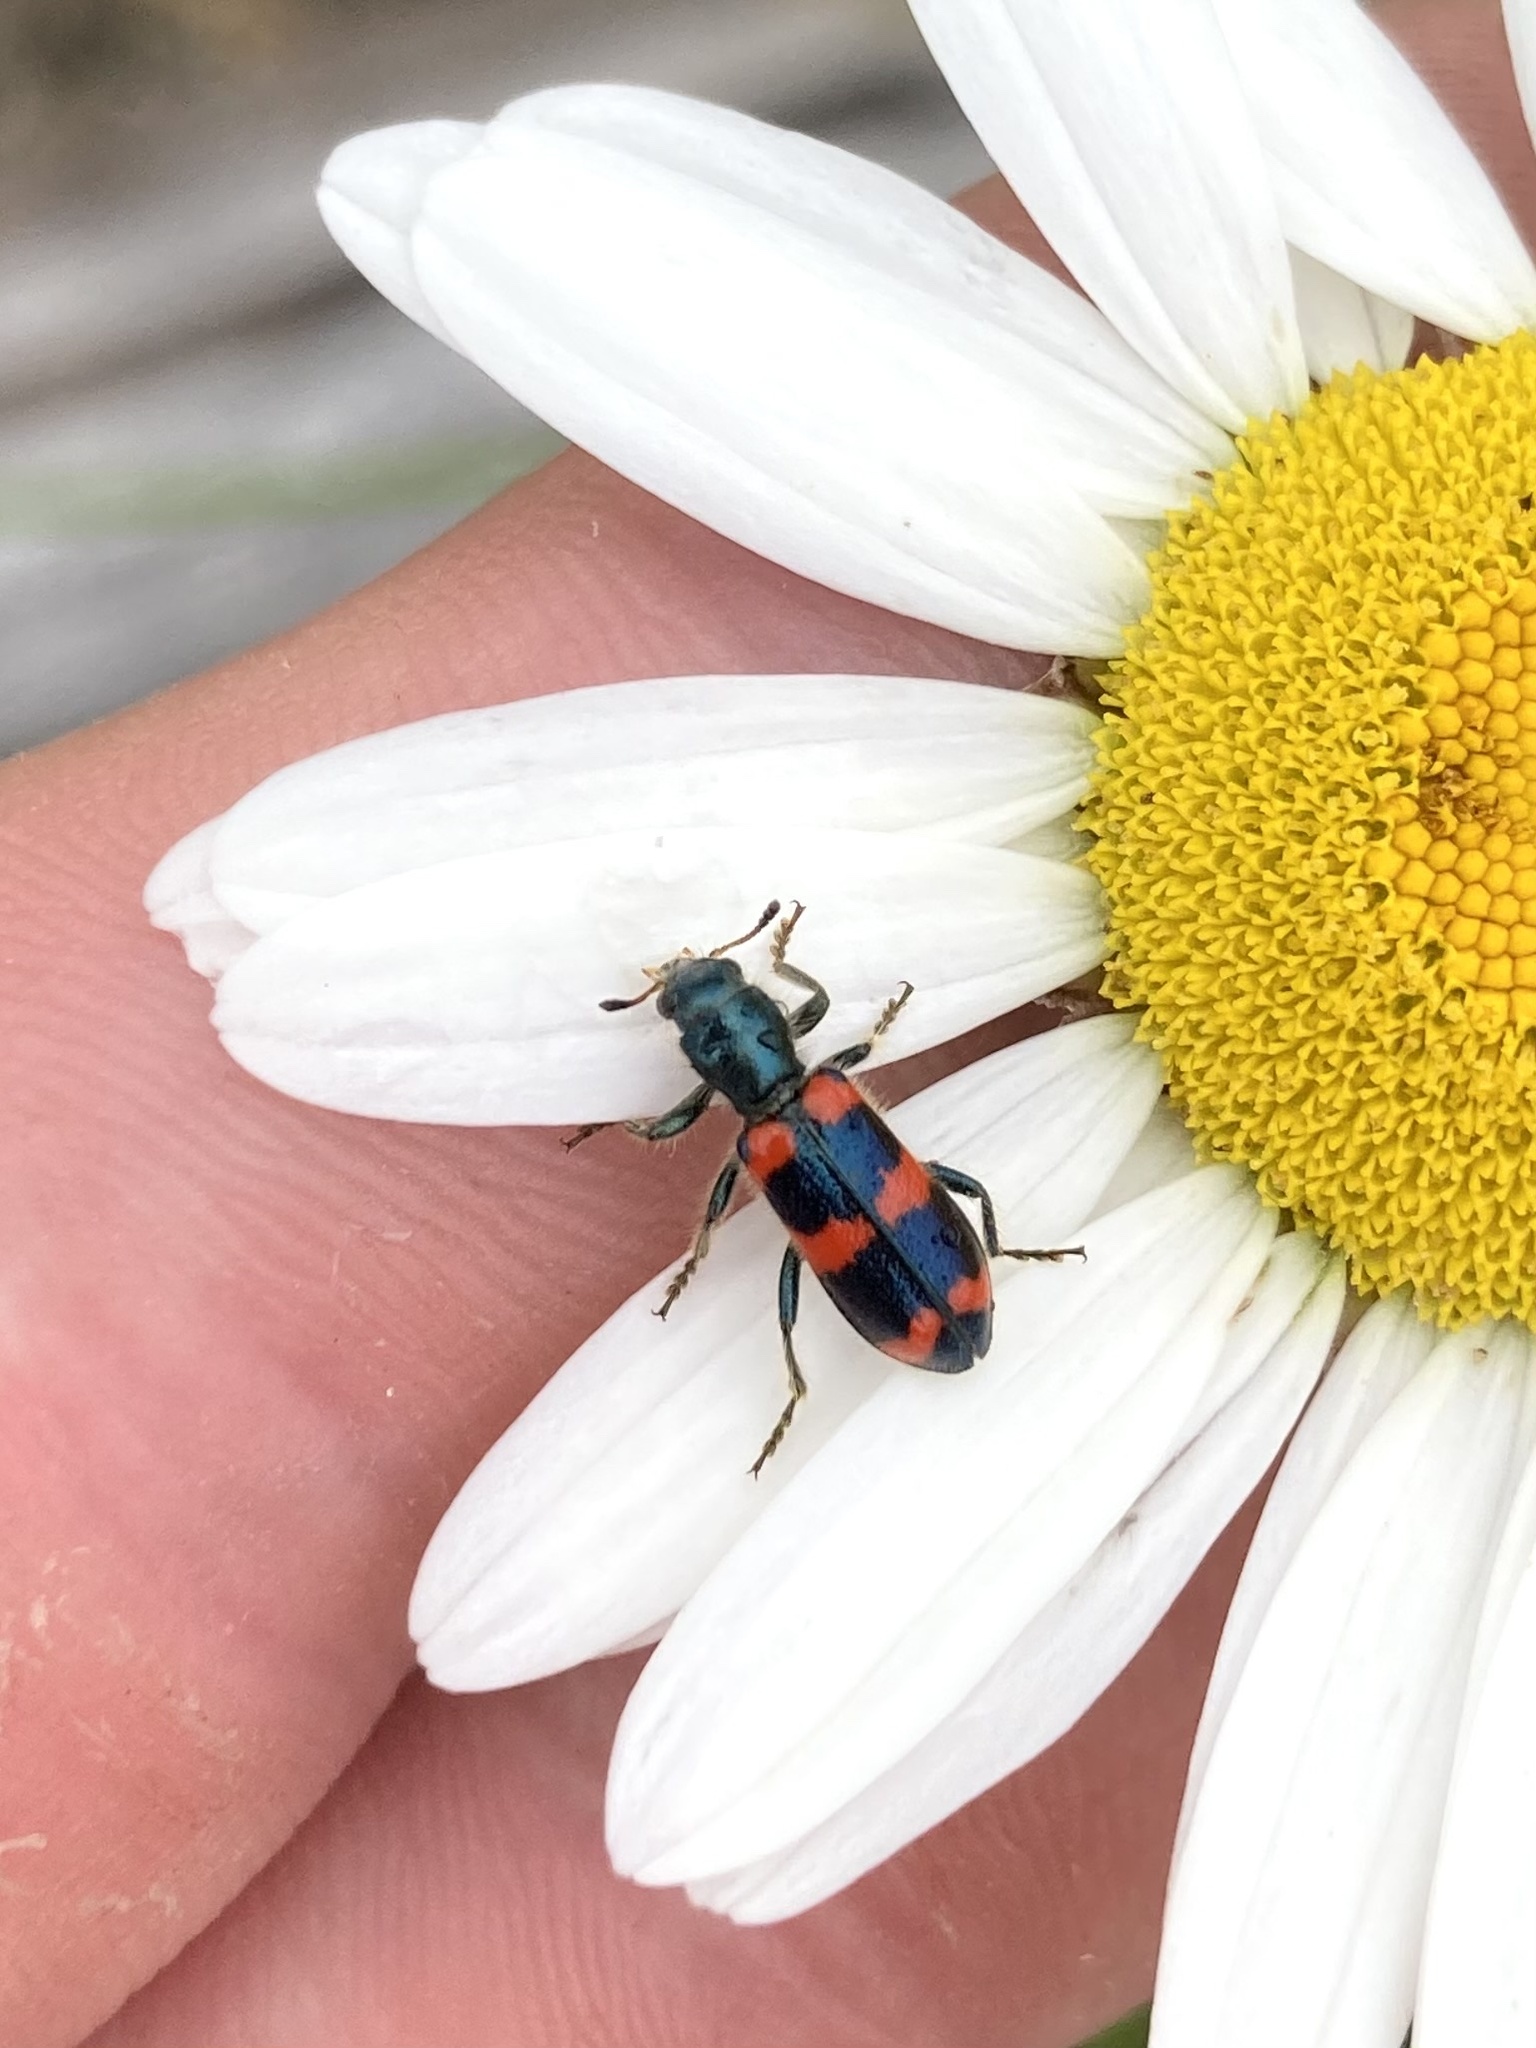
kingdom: Animalia
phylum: Arthropoda
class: Insecta
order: Coleoptera
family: Cleridae
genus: Trichodes
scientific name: Trichodes nutalli
